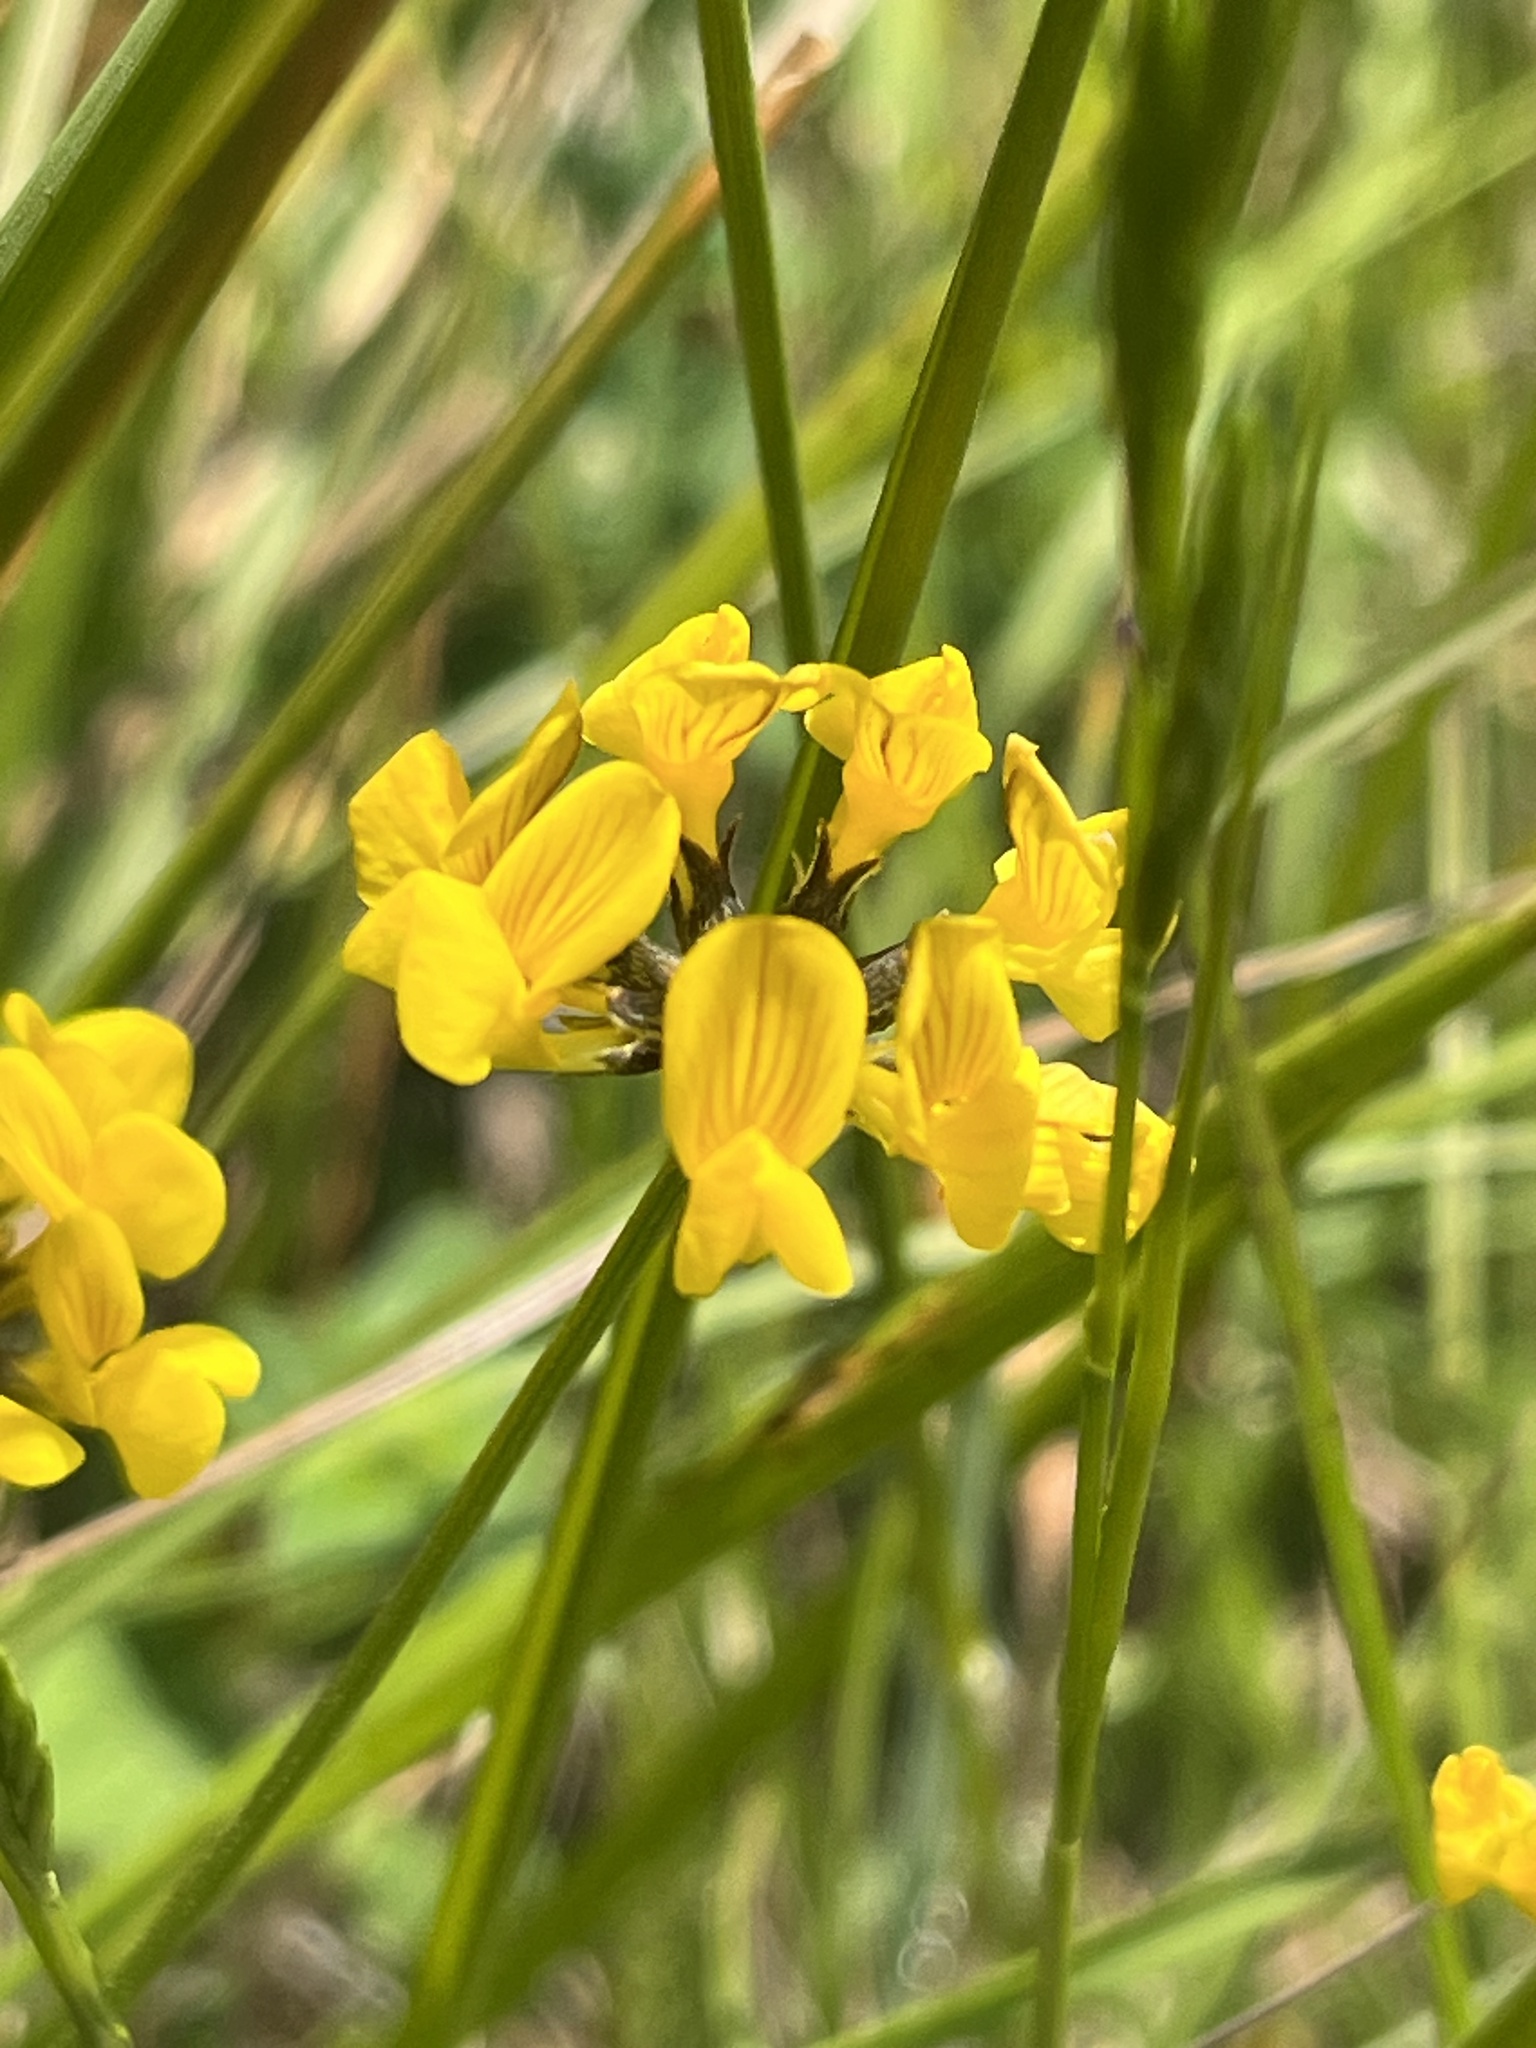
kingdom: Plantae
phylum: Tracheophyta
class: Magnoliopsida
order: Fabales
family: Fabaceae
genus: Hippocrepis
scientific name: Hippocrepis comosa
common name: Horseshoe vetch
